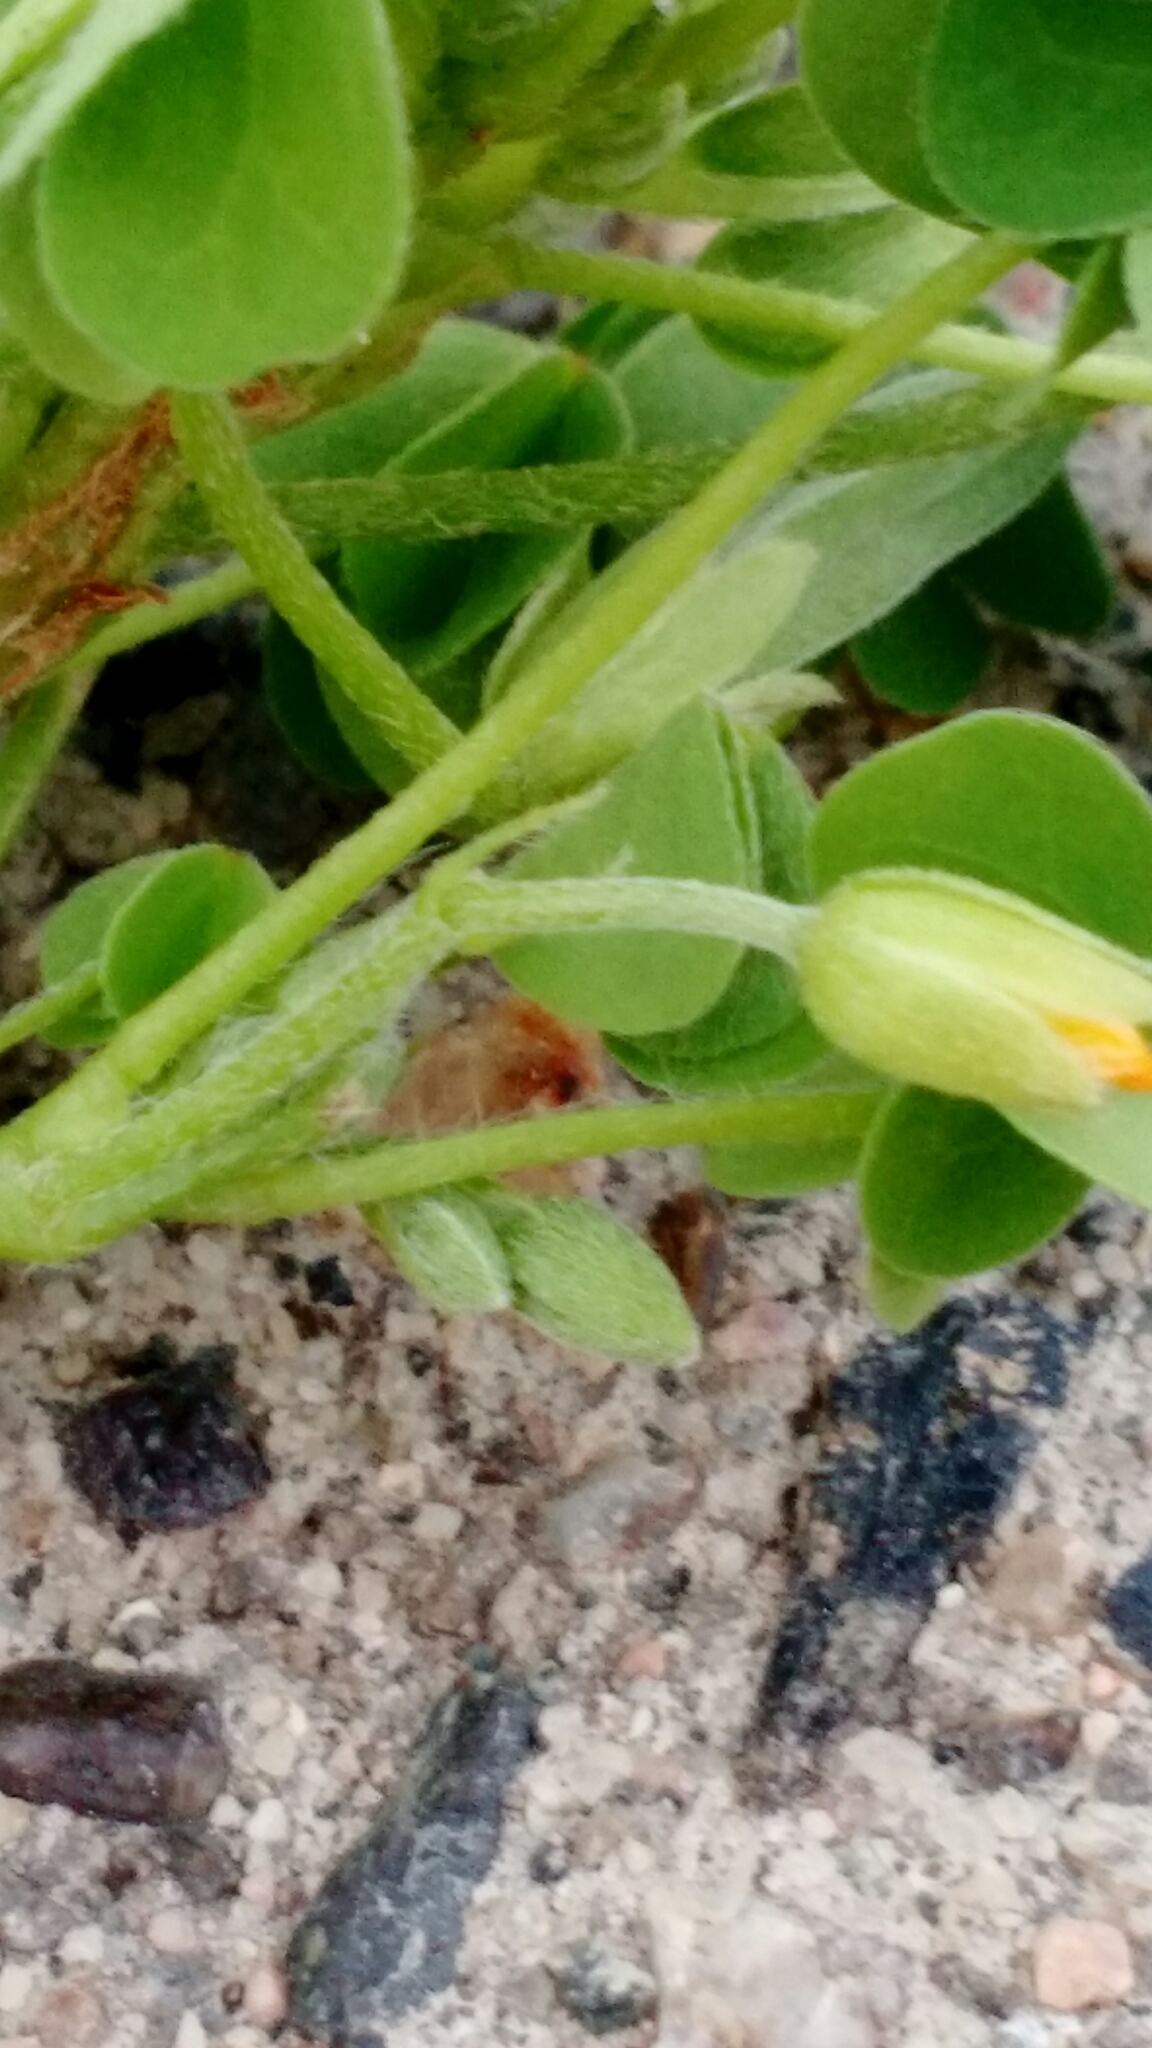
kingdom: Plantae
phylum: Tracheophyta
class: Magnoliopsida
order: Oxalidales
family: Oxalidaceae
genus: Oxalis
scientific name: Oxalis dillenii
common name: Sussex yellow-sorrel
